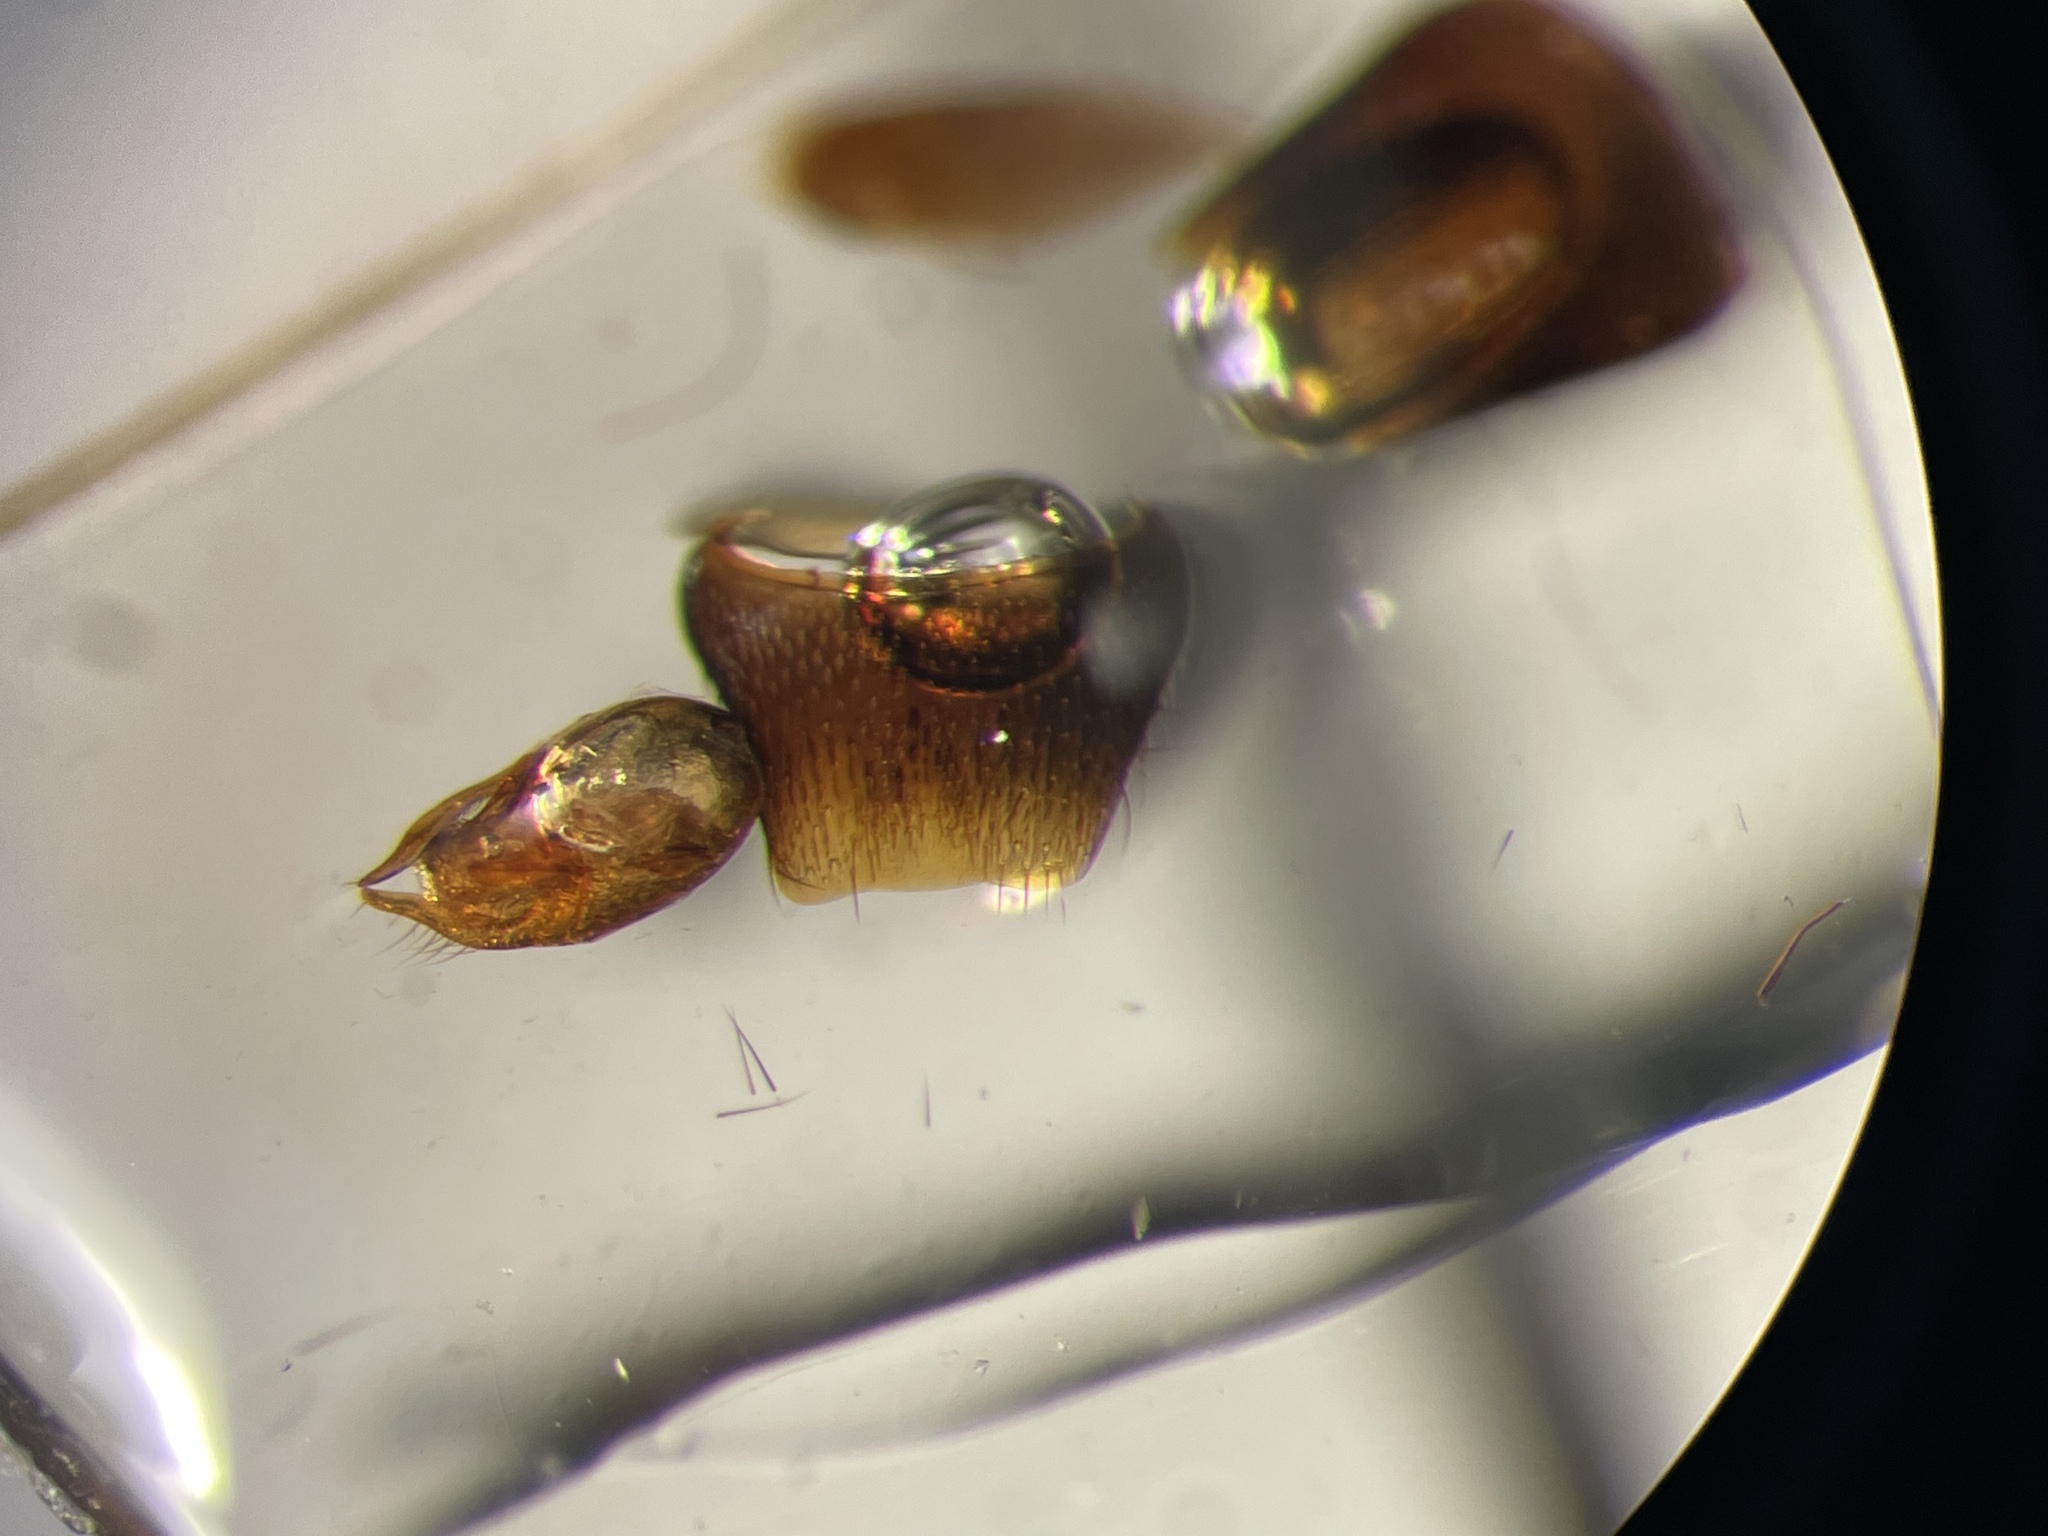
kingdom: Animalia
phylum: Arthropoda
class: Insecta
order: Coleoptera
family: Staphylinidae
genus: Carphacis
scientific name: Carphacis nepigonensis
